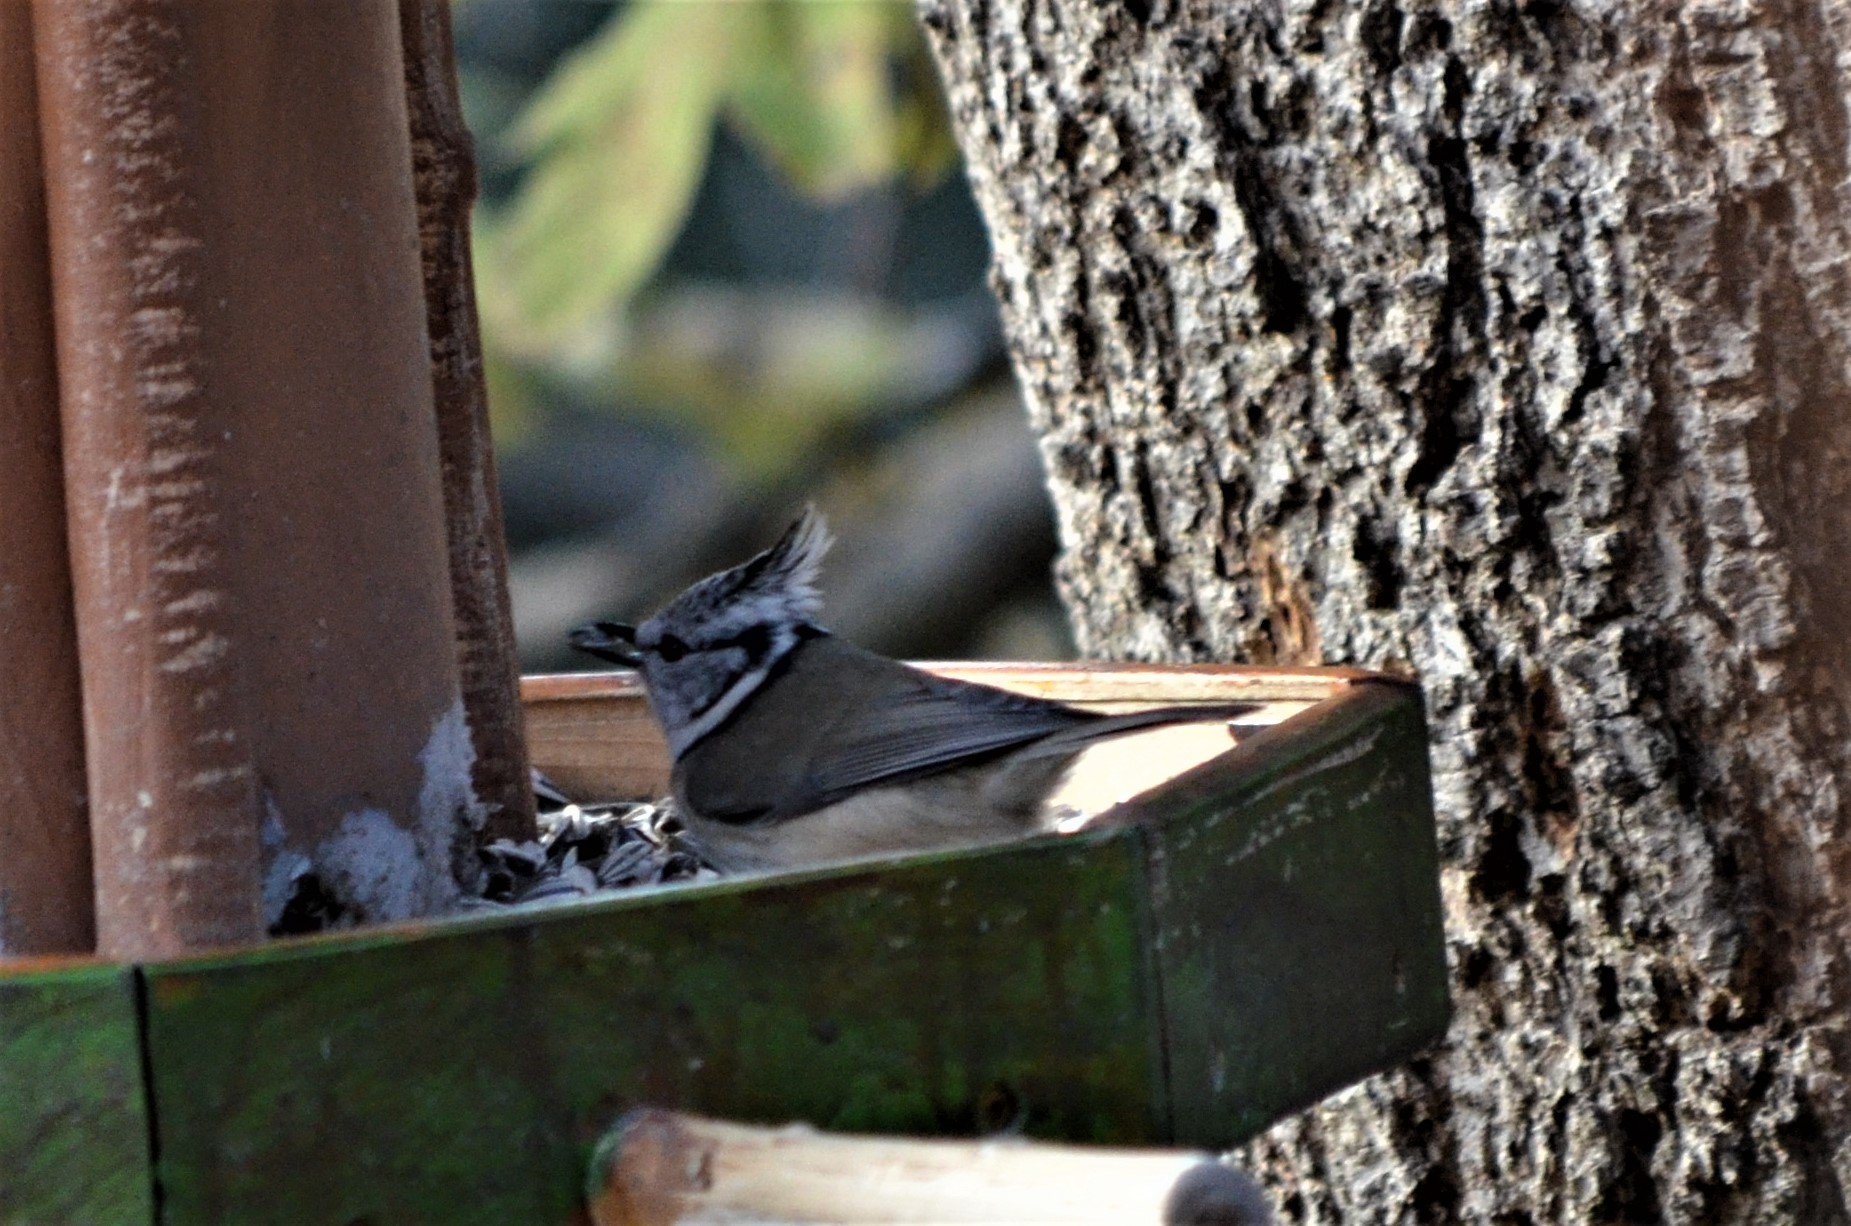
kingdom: Animalia
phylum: Chordata
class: Aves
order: Passeriformes
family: Paridae
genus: Lophophanes
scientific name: Lophophanes cristatus
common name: European crested tit
